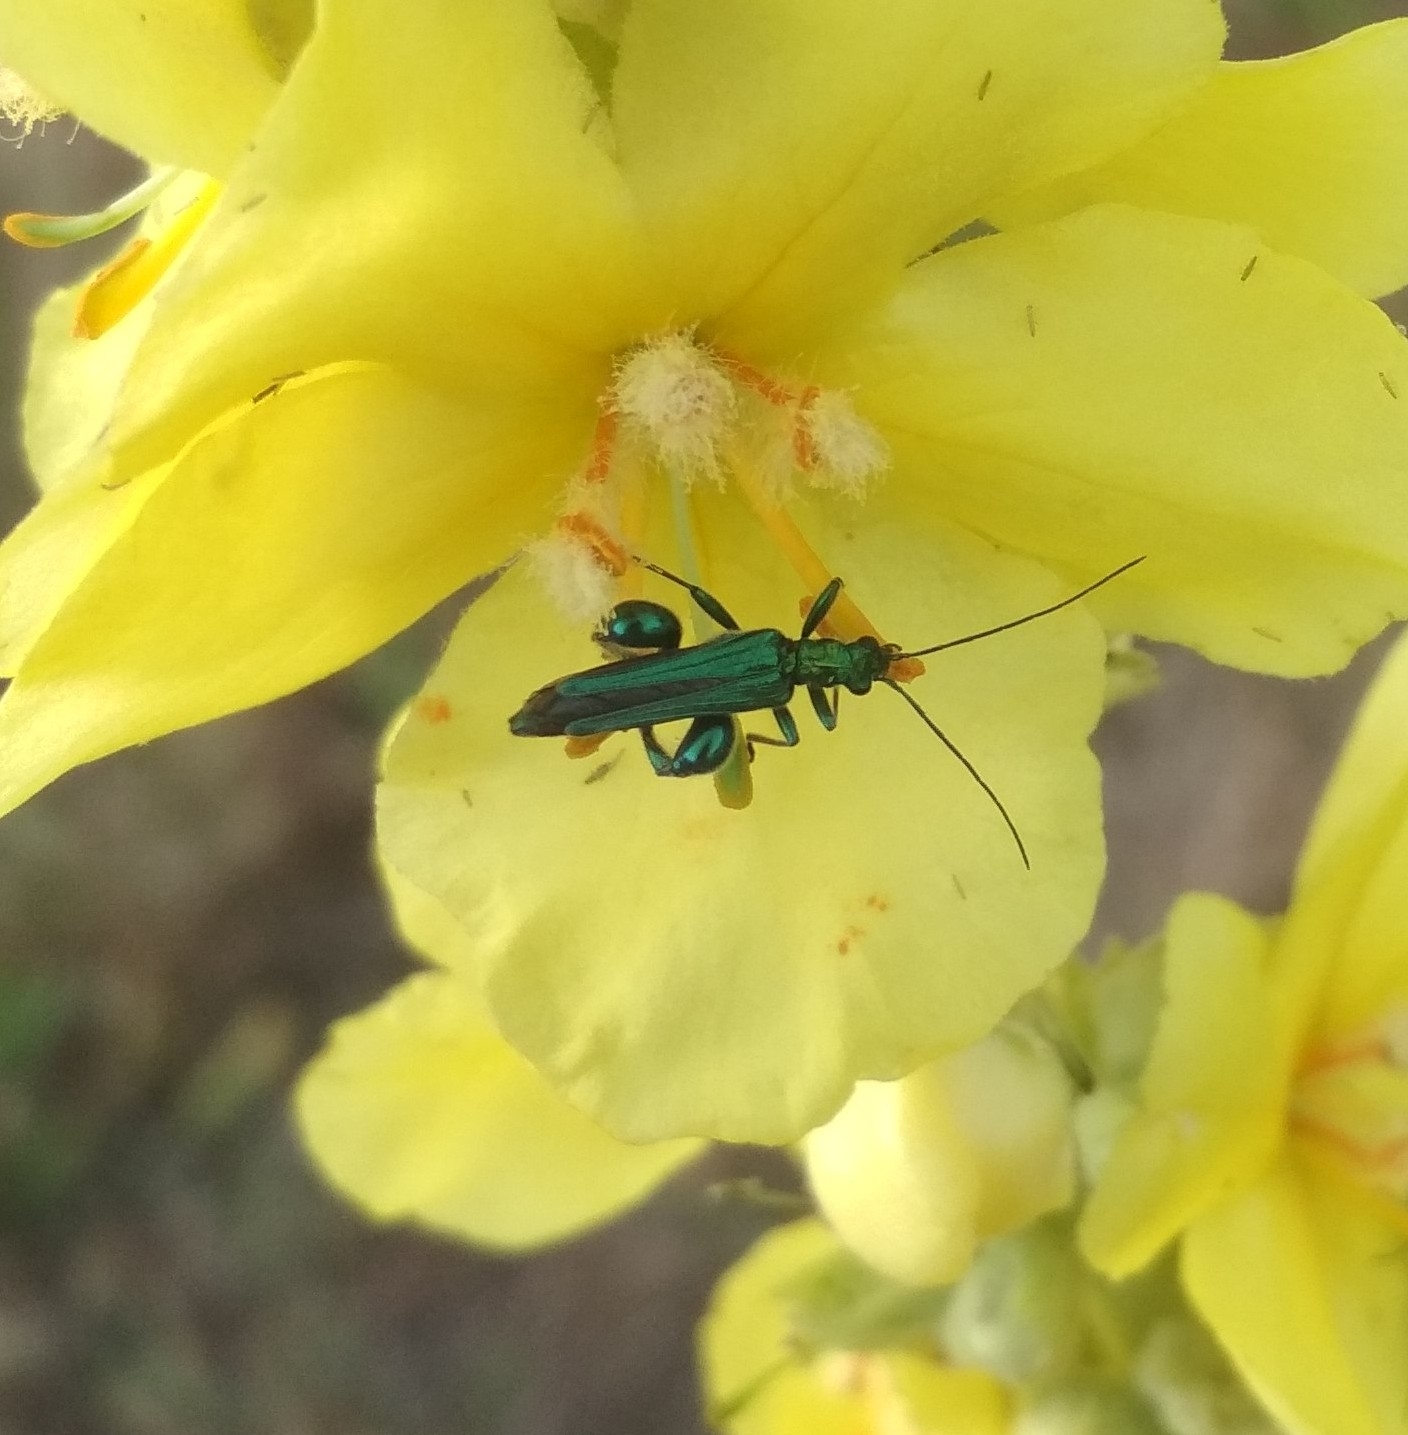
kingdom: Animalia
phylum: Arthropoda
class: Insecta
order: Coleoptera
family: Oedemeridae
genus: Oedemera
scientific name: Oedemera nobilis
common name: Swollen-thighed beetle
